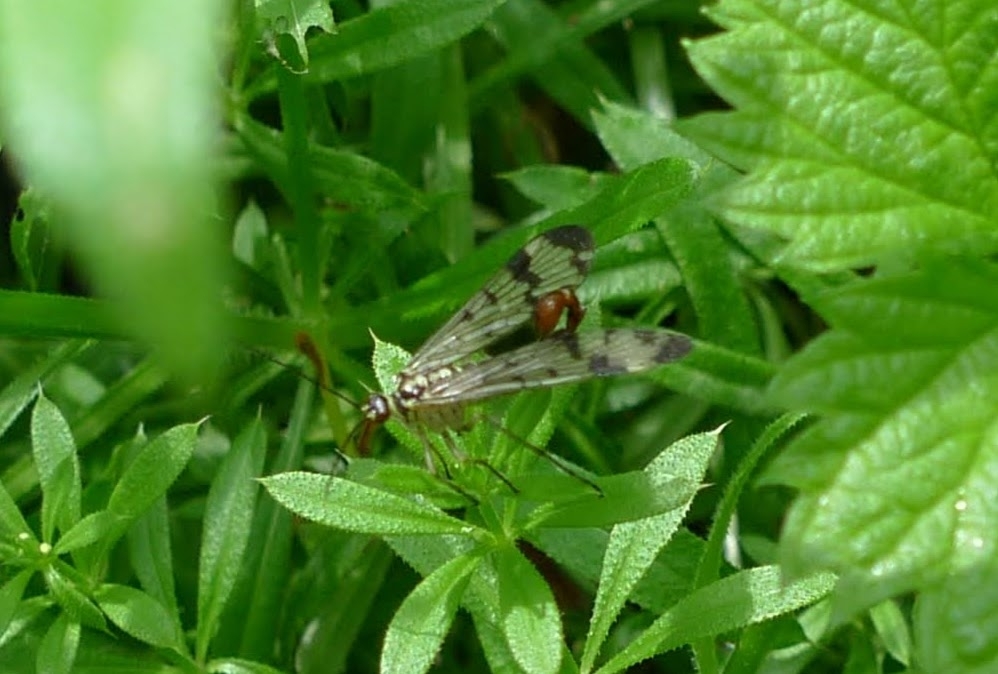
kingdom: Animalia
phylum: Arthropoda
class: Insecta
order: Mecoptera
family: Panorpidae
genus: Panorpa
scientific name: Panorpa communis
